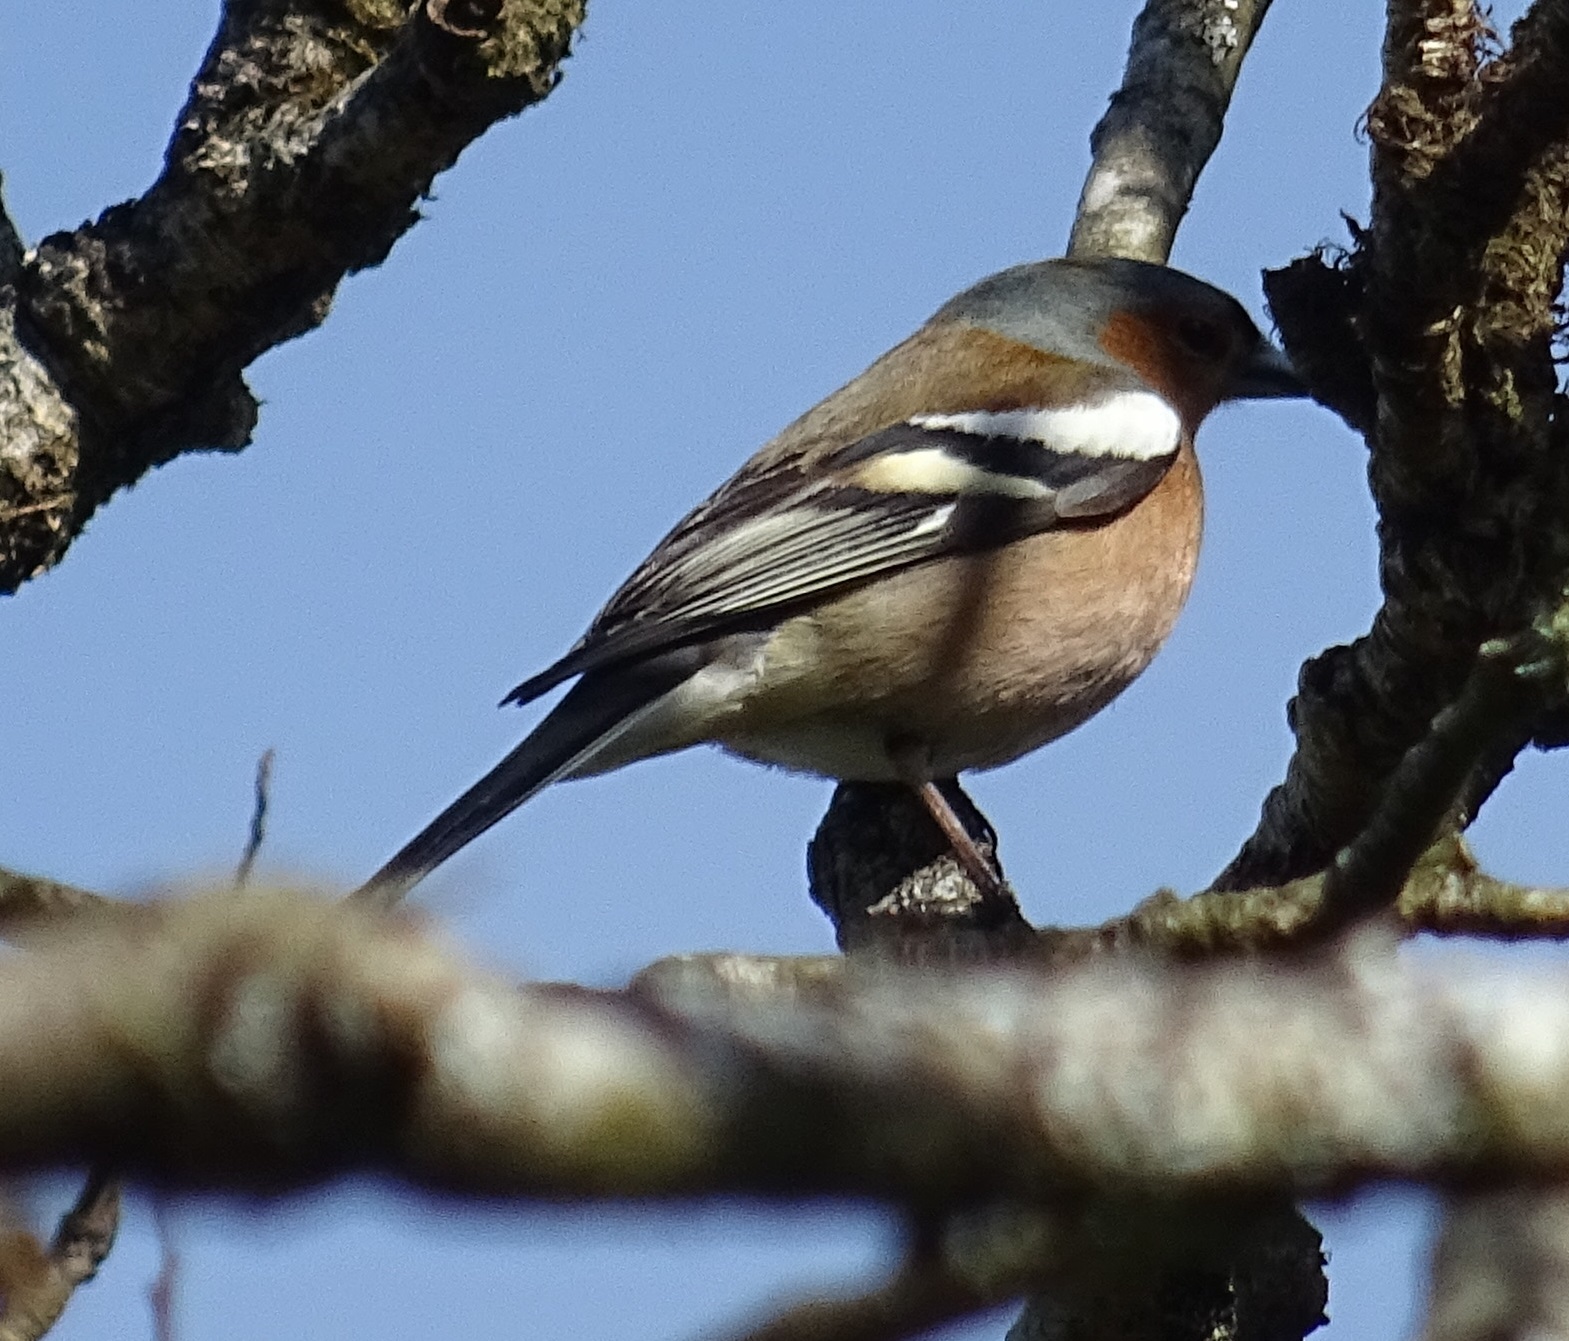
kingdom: Animalia
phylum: Chordata
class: Aves
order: Passeriformes
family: Fringillidae
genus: Fringilla
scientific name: Fringilla coelebs
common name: Common chaffinch
